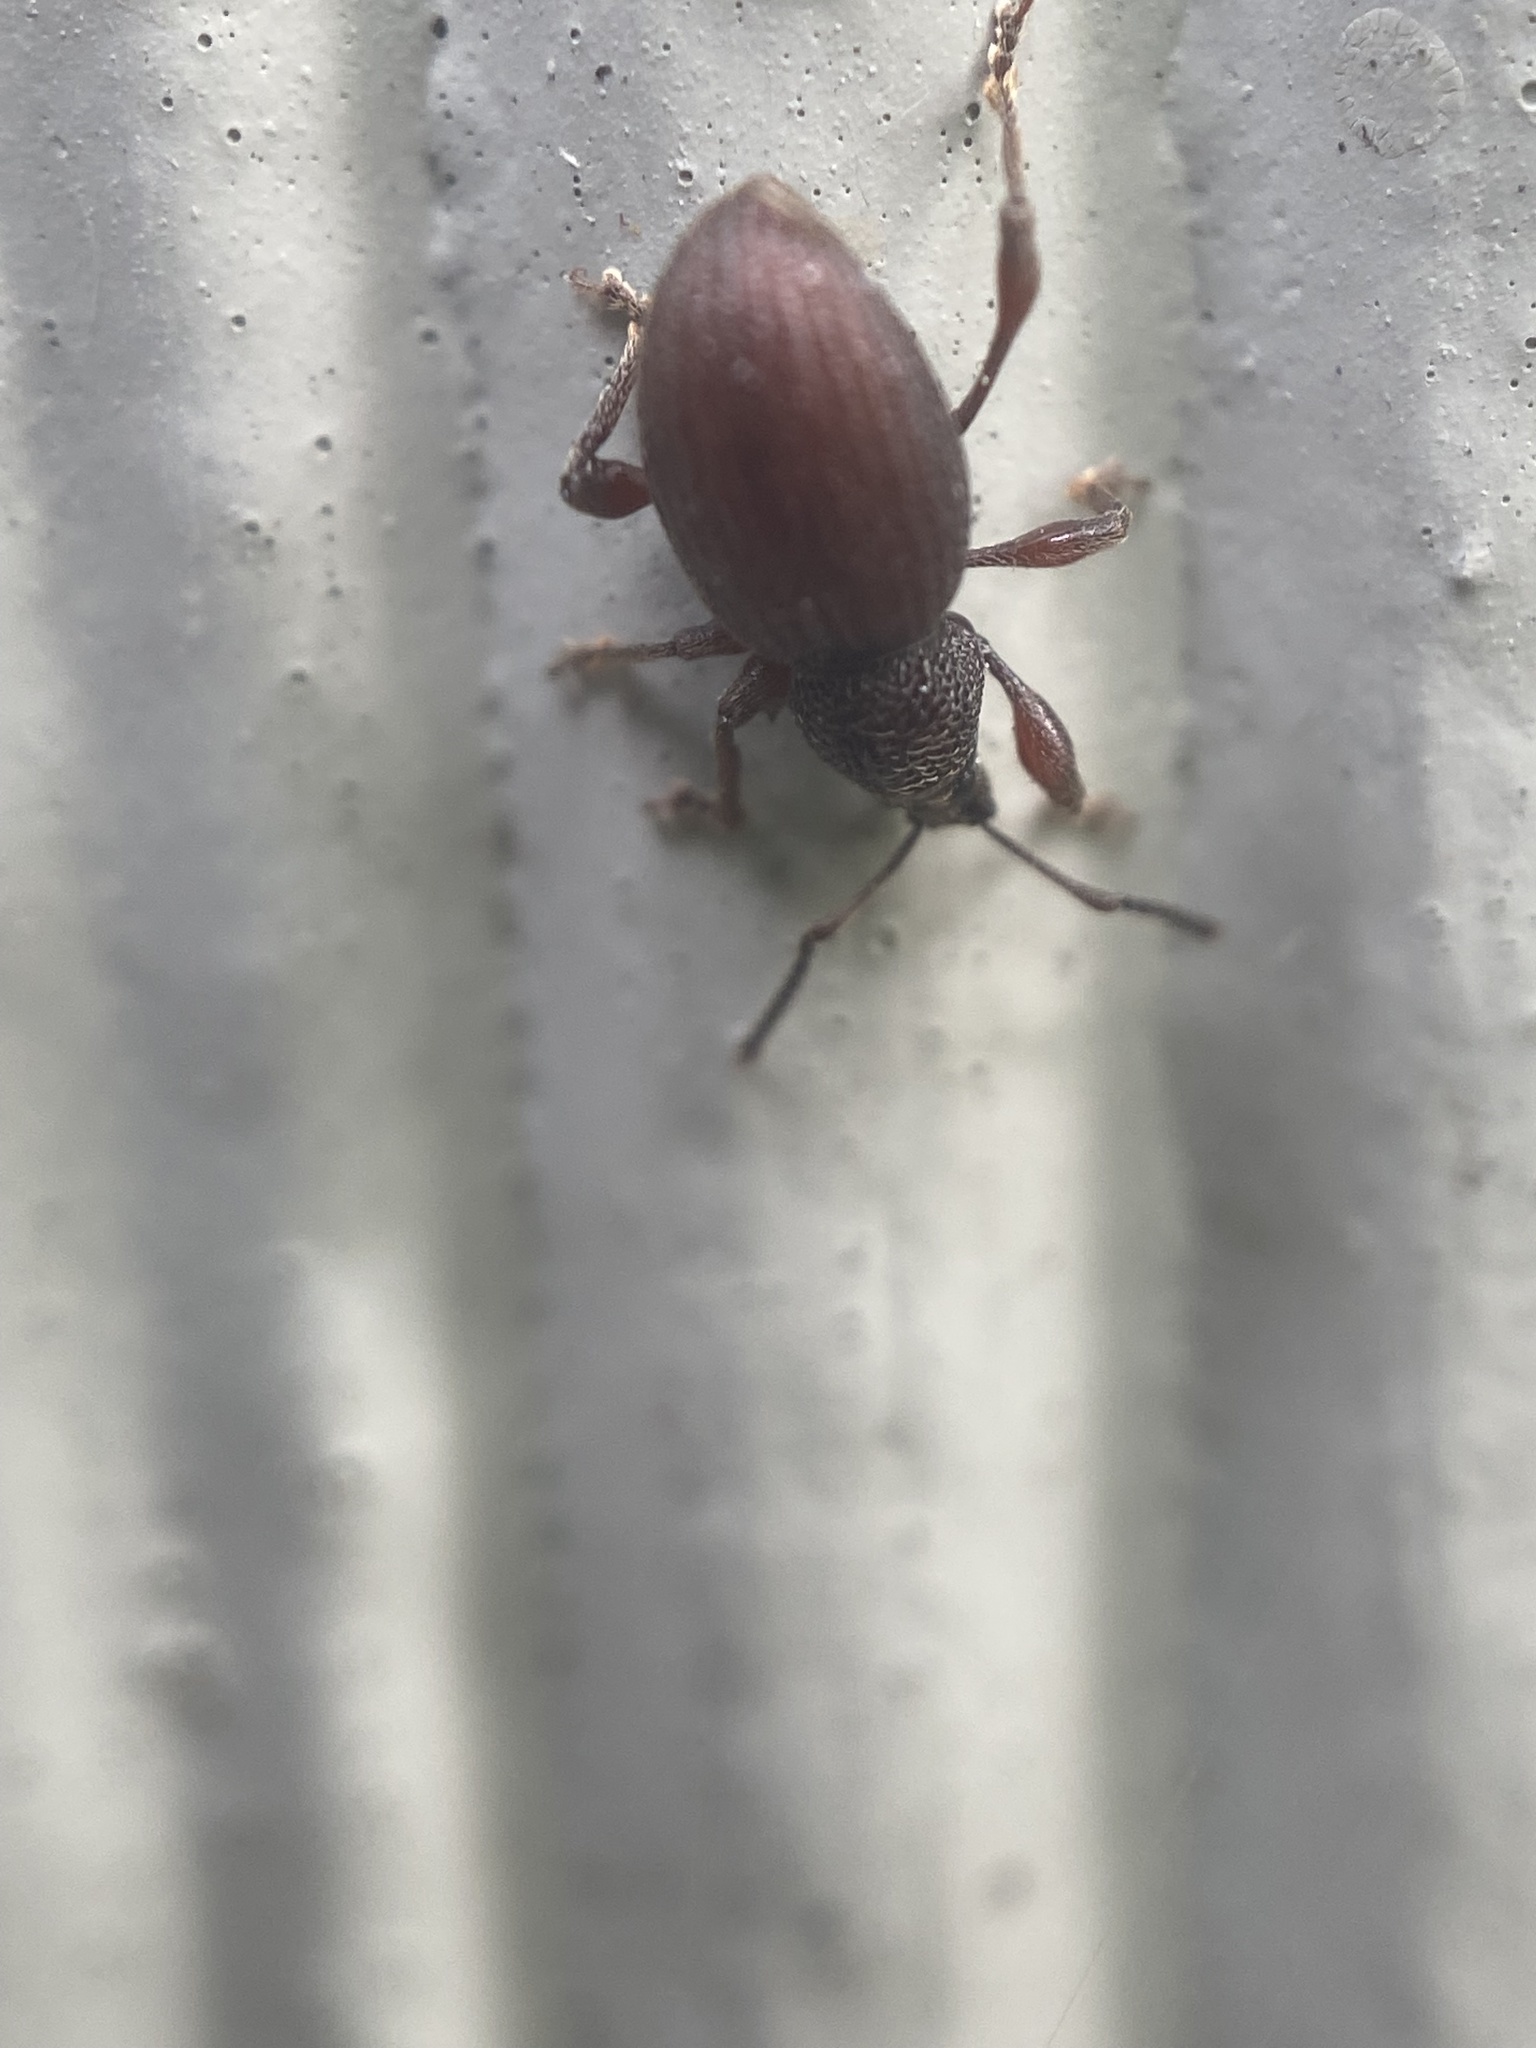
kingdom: Animalia
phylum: Arthropoda
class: Insecta
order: Coleoptera
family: Curculionidae
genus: Otiorhynchus
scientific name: Otiorhynchus ovatus
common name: Strawberry root weevil
